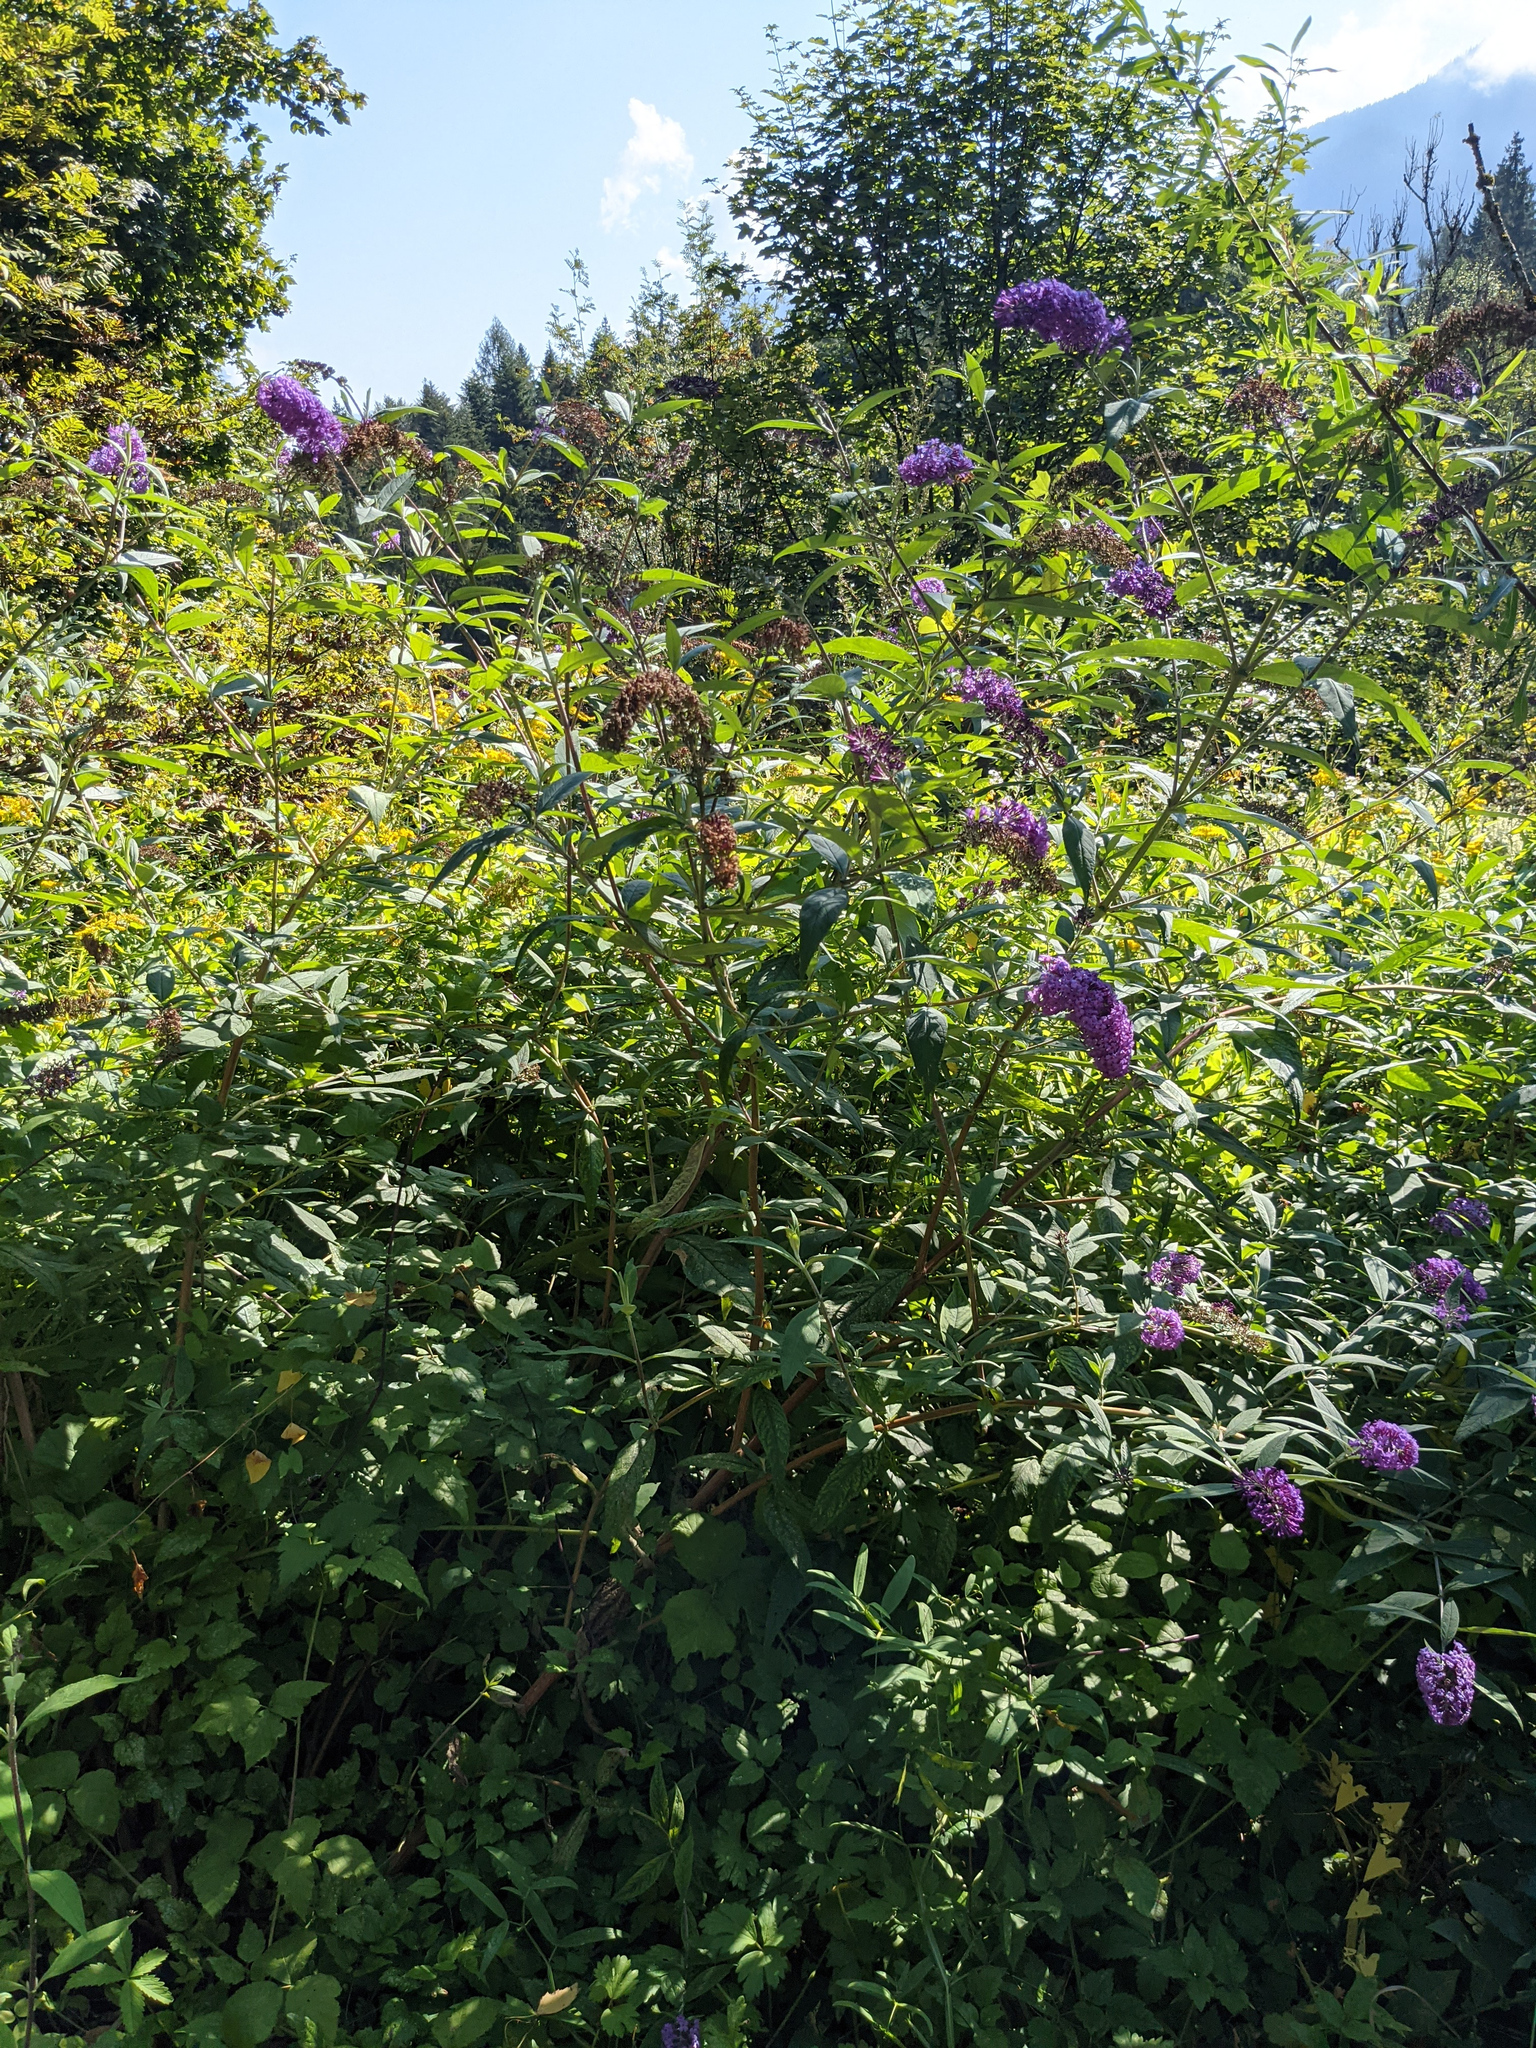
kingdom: Plantae
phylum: Tracheophyta
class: Magnoliopsida
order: Lamiales
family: Scrophulariaceae
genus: Buddleja
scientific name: Buddleja davidii
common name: Butterfly-bush
